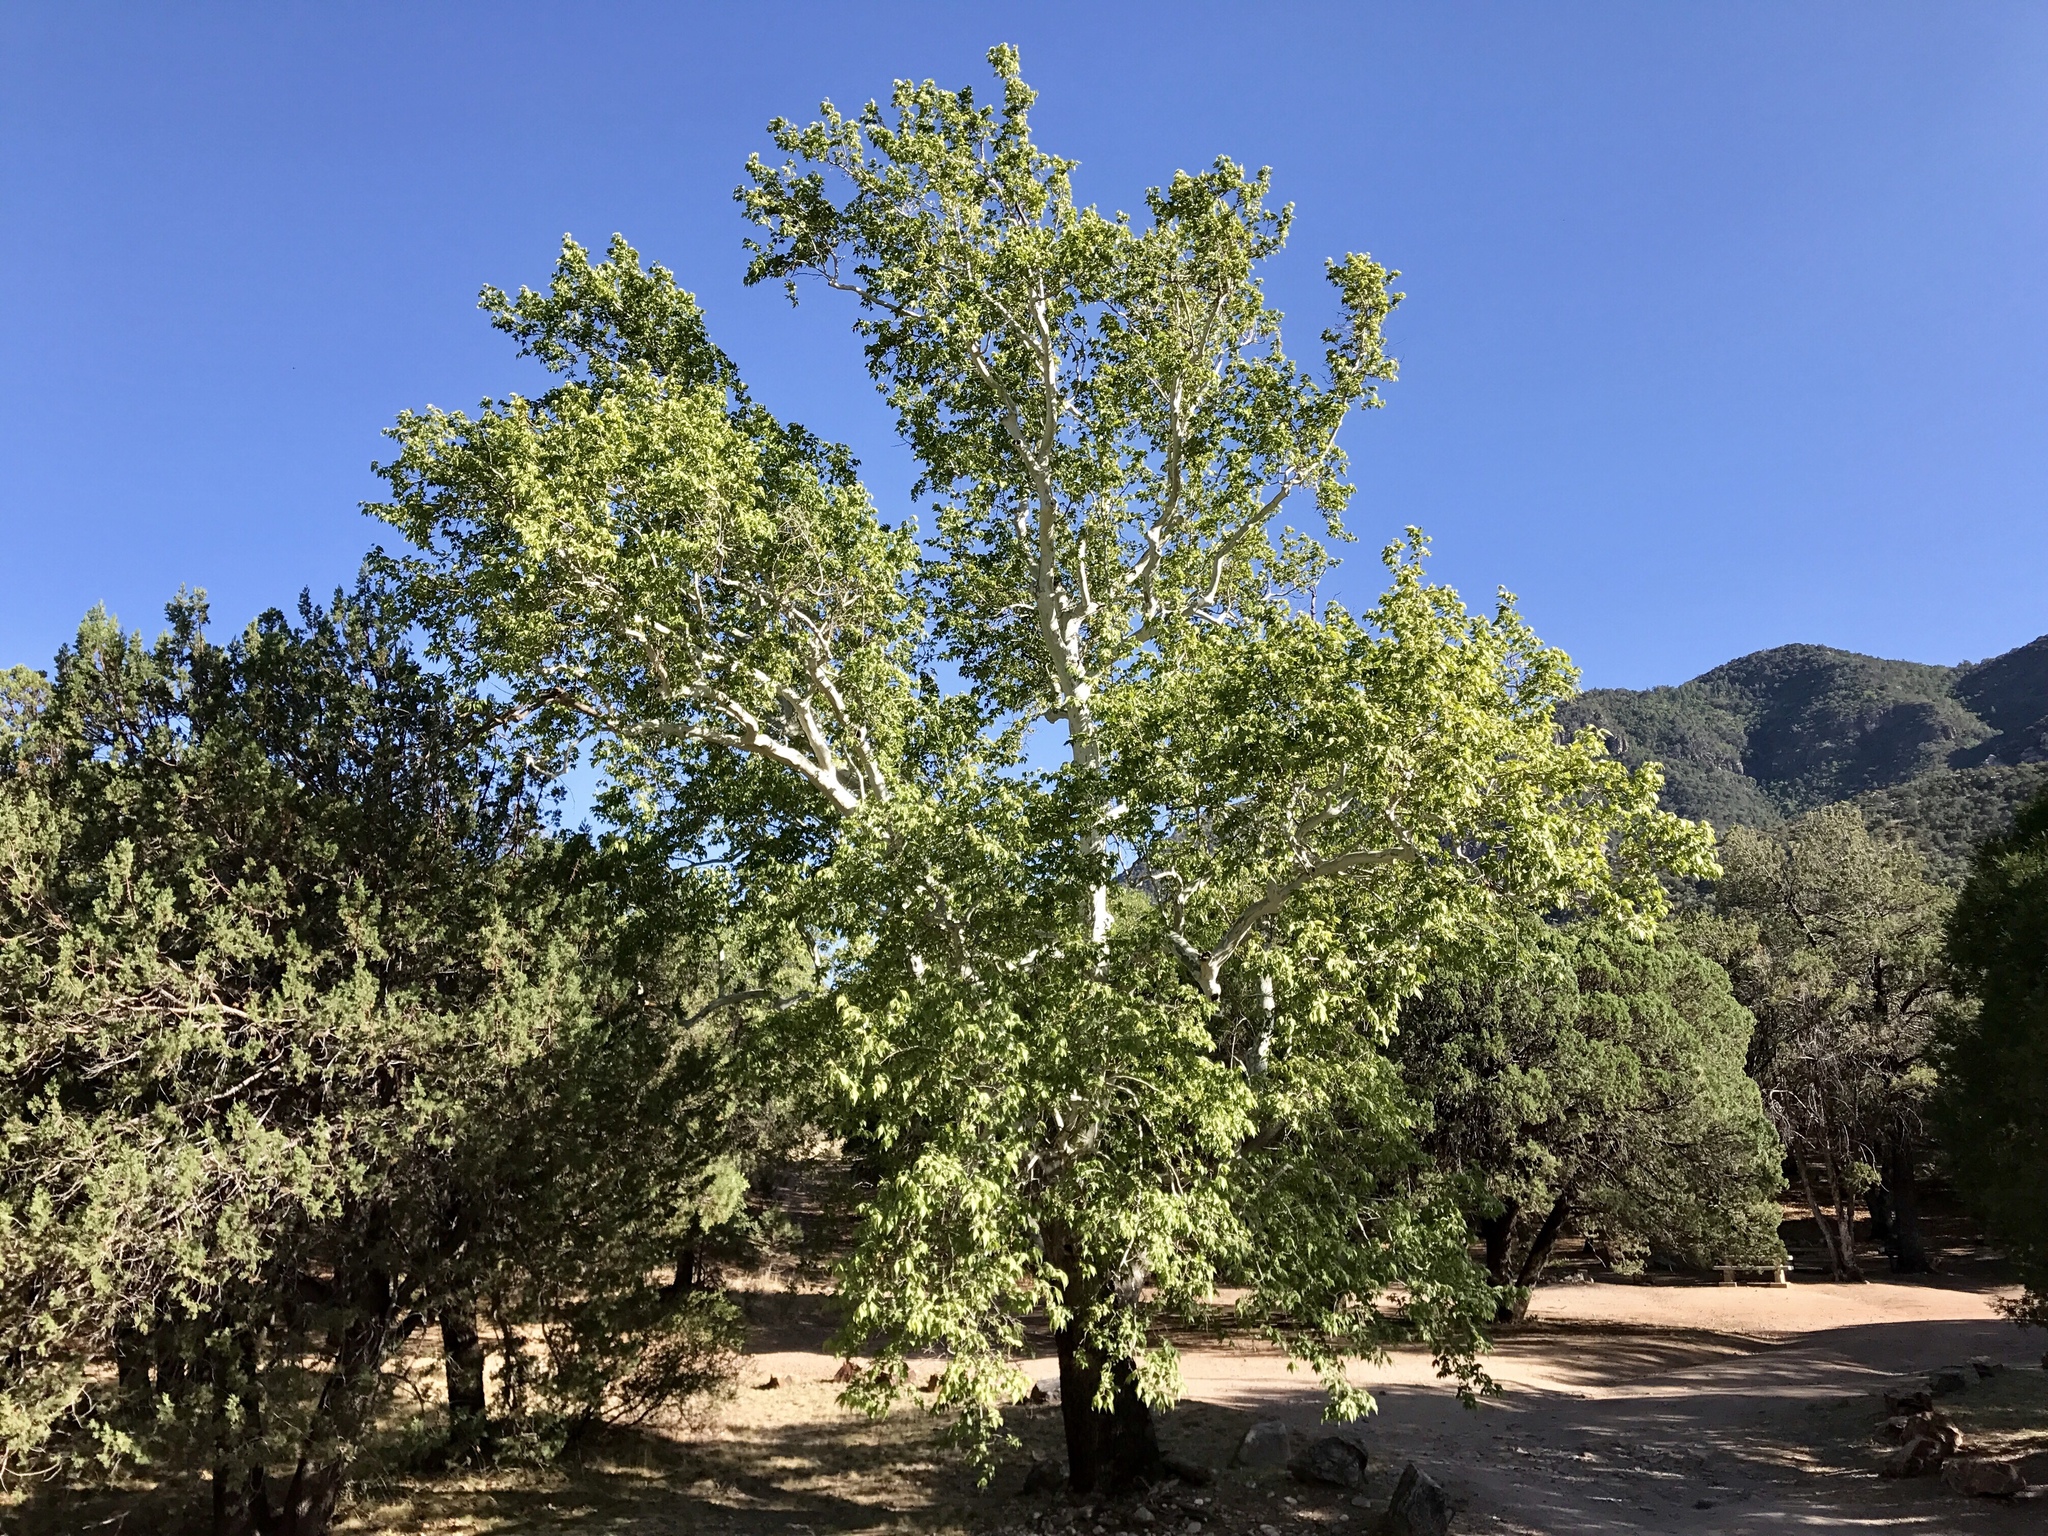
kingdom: Plantae
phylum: Tracheophyta
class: Magnoliopsida
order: Proteales
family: Platanaceae
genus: Platanus
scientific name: Platanus wrightii
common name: Arizona sycamore
